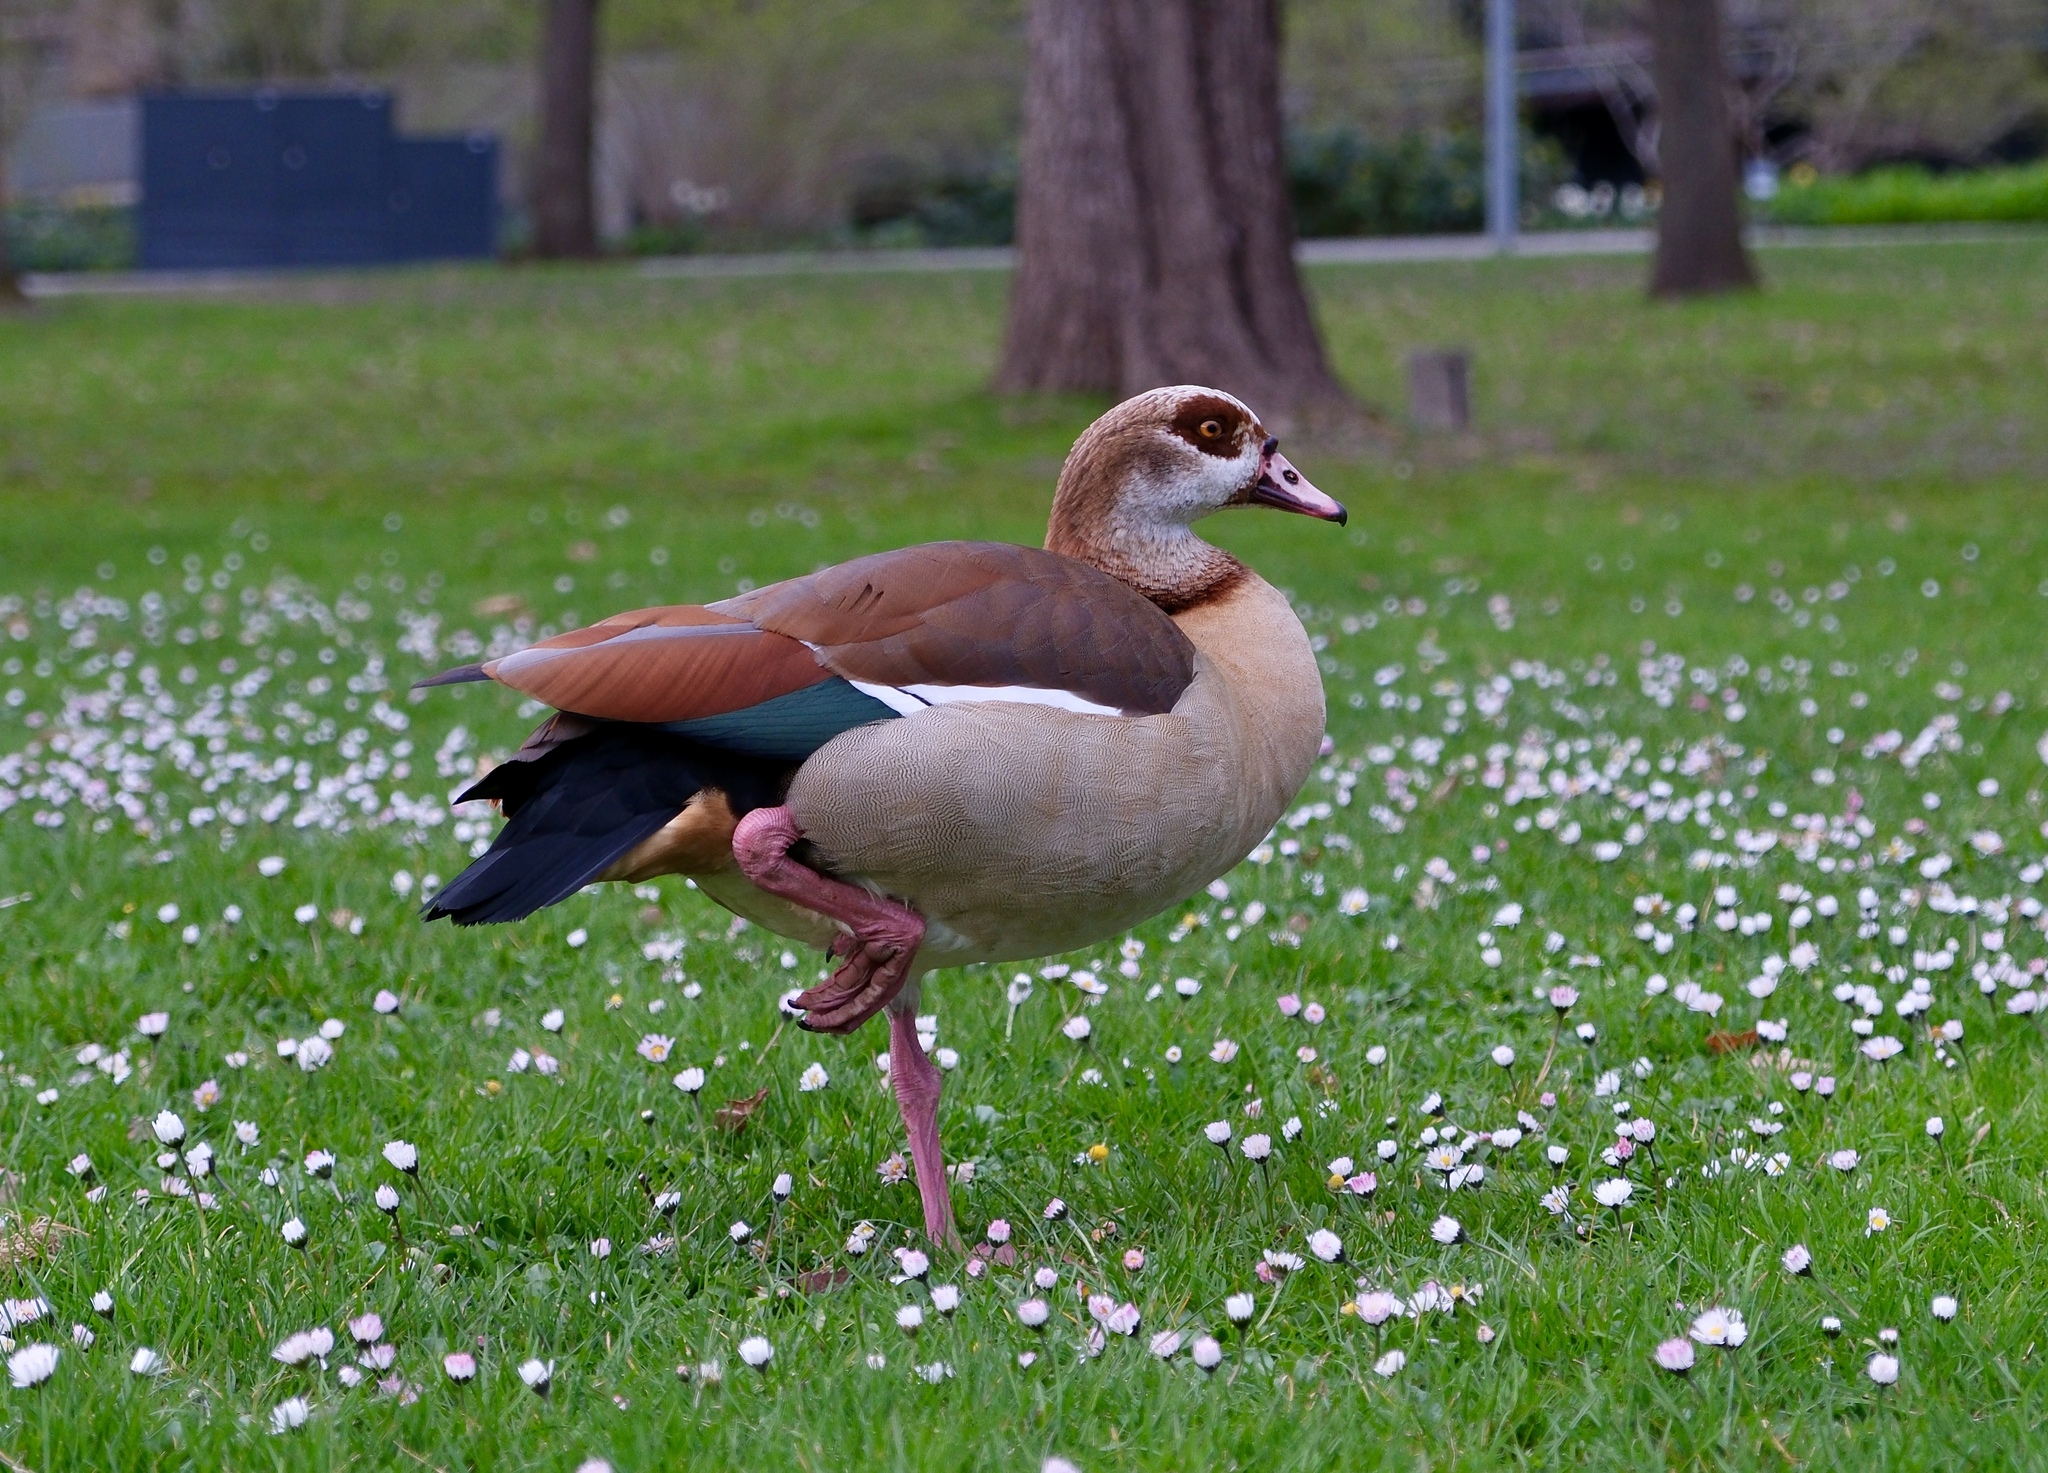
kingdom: Animalia
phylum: Chordata
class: Aves
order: Anseriformes
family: Anatidae
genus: Alopochen
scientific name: Alopochen aegyptiaca
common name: Egyptian goose
